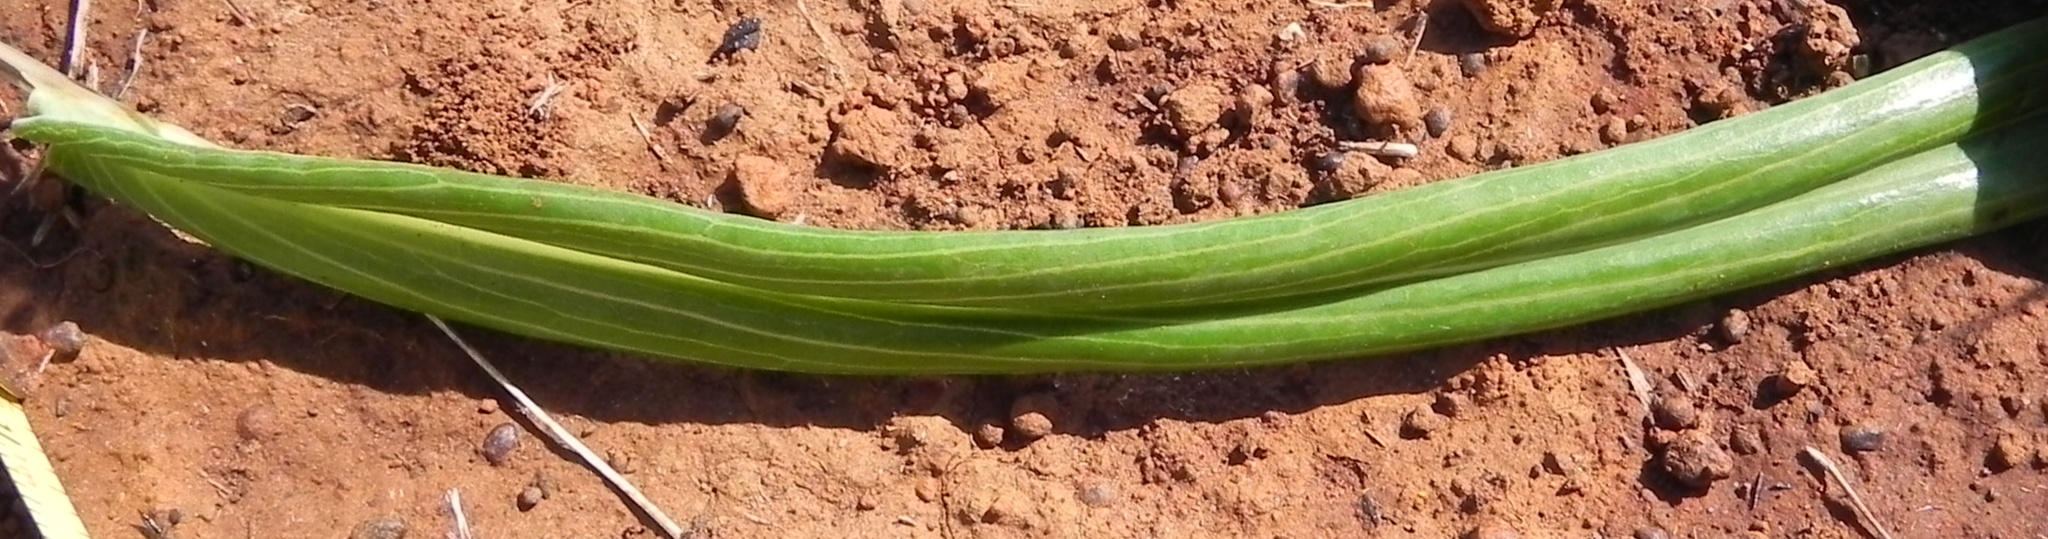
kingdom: Plantae
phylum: Tracheophyta
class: Magnoliopsida
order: Asterales
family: Asteraceae
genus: Senecio
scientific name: Senecio bupleuroides
